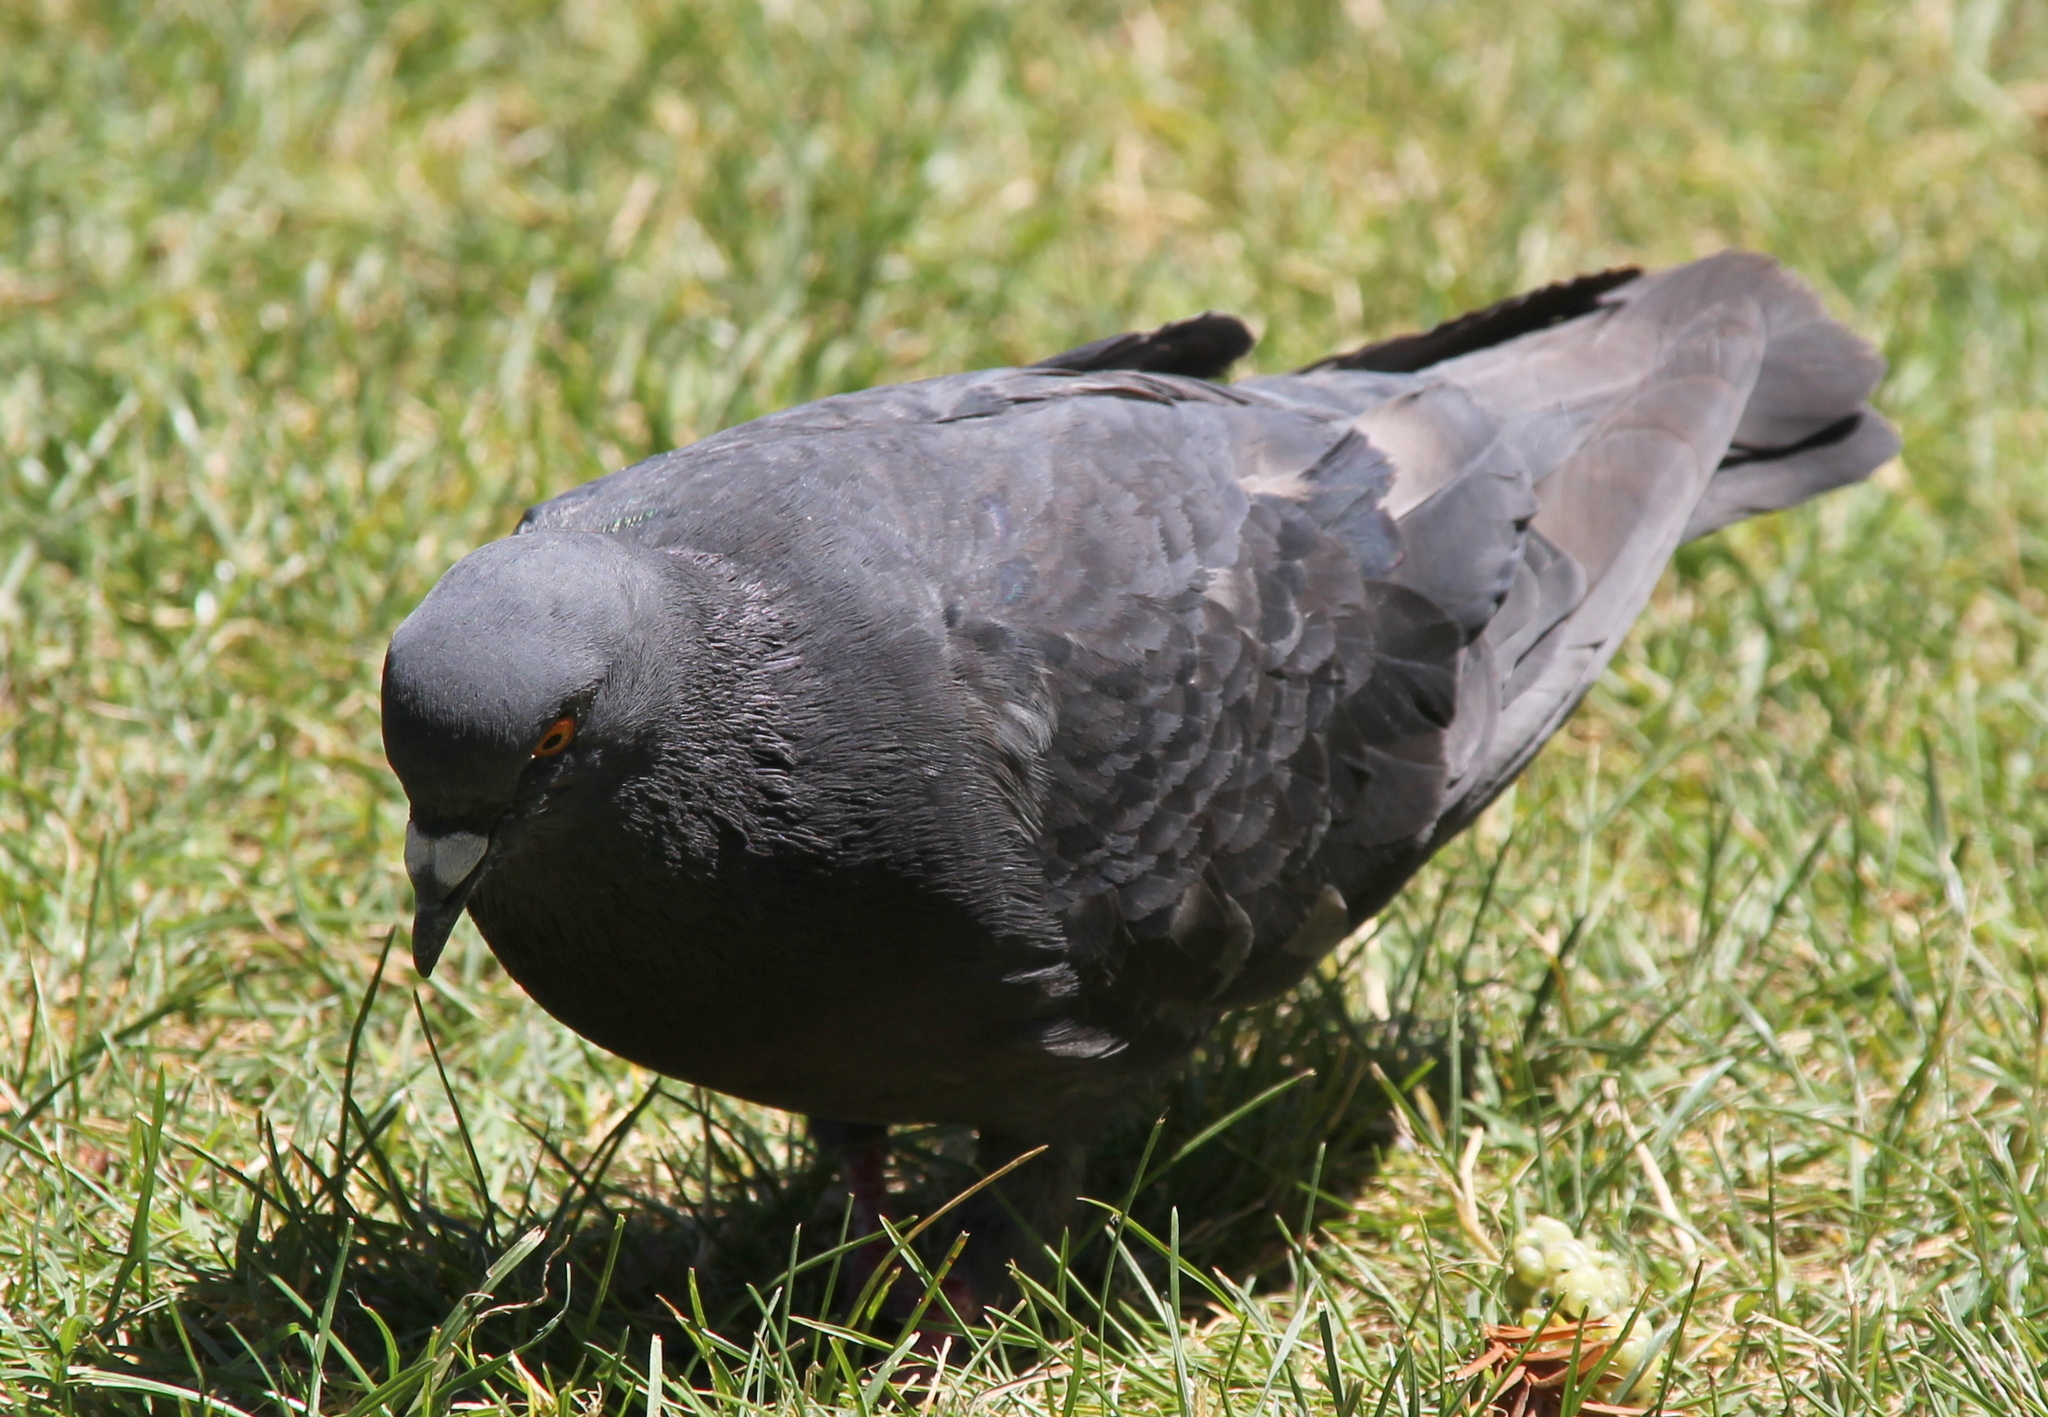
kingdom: Animalia
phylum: Chordata
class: Aves
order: Columbiformes
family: Columbidae
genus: Columba
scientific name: Columba livia
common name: Rock pigeon
